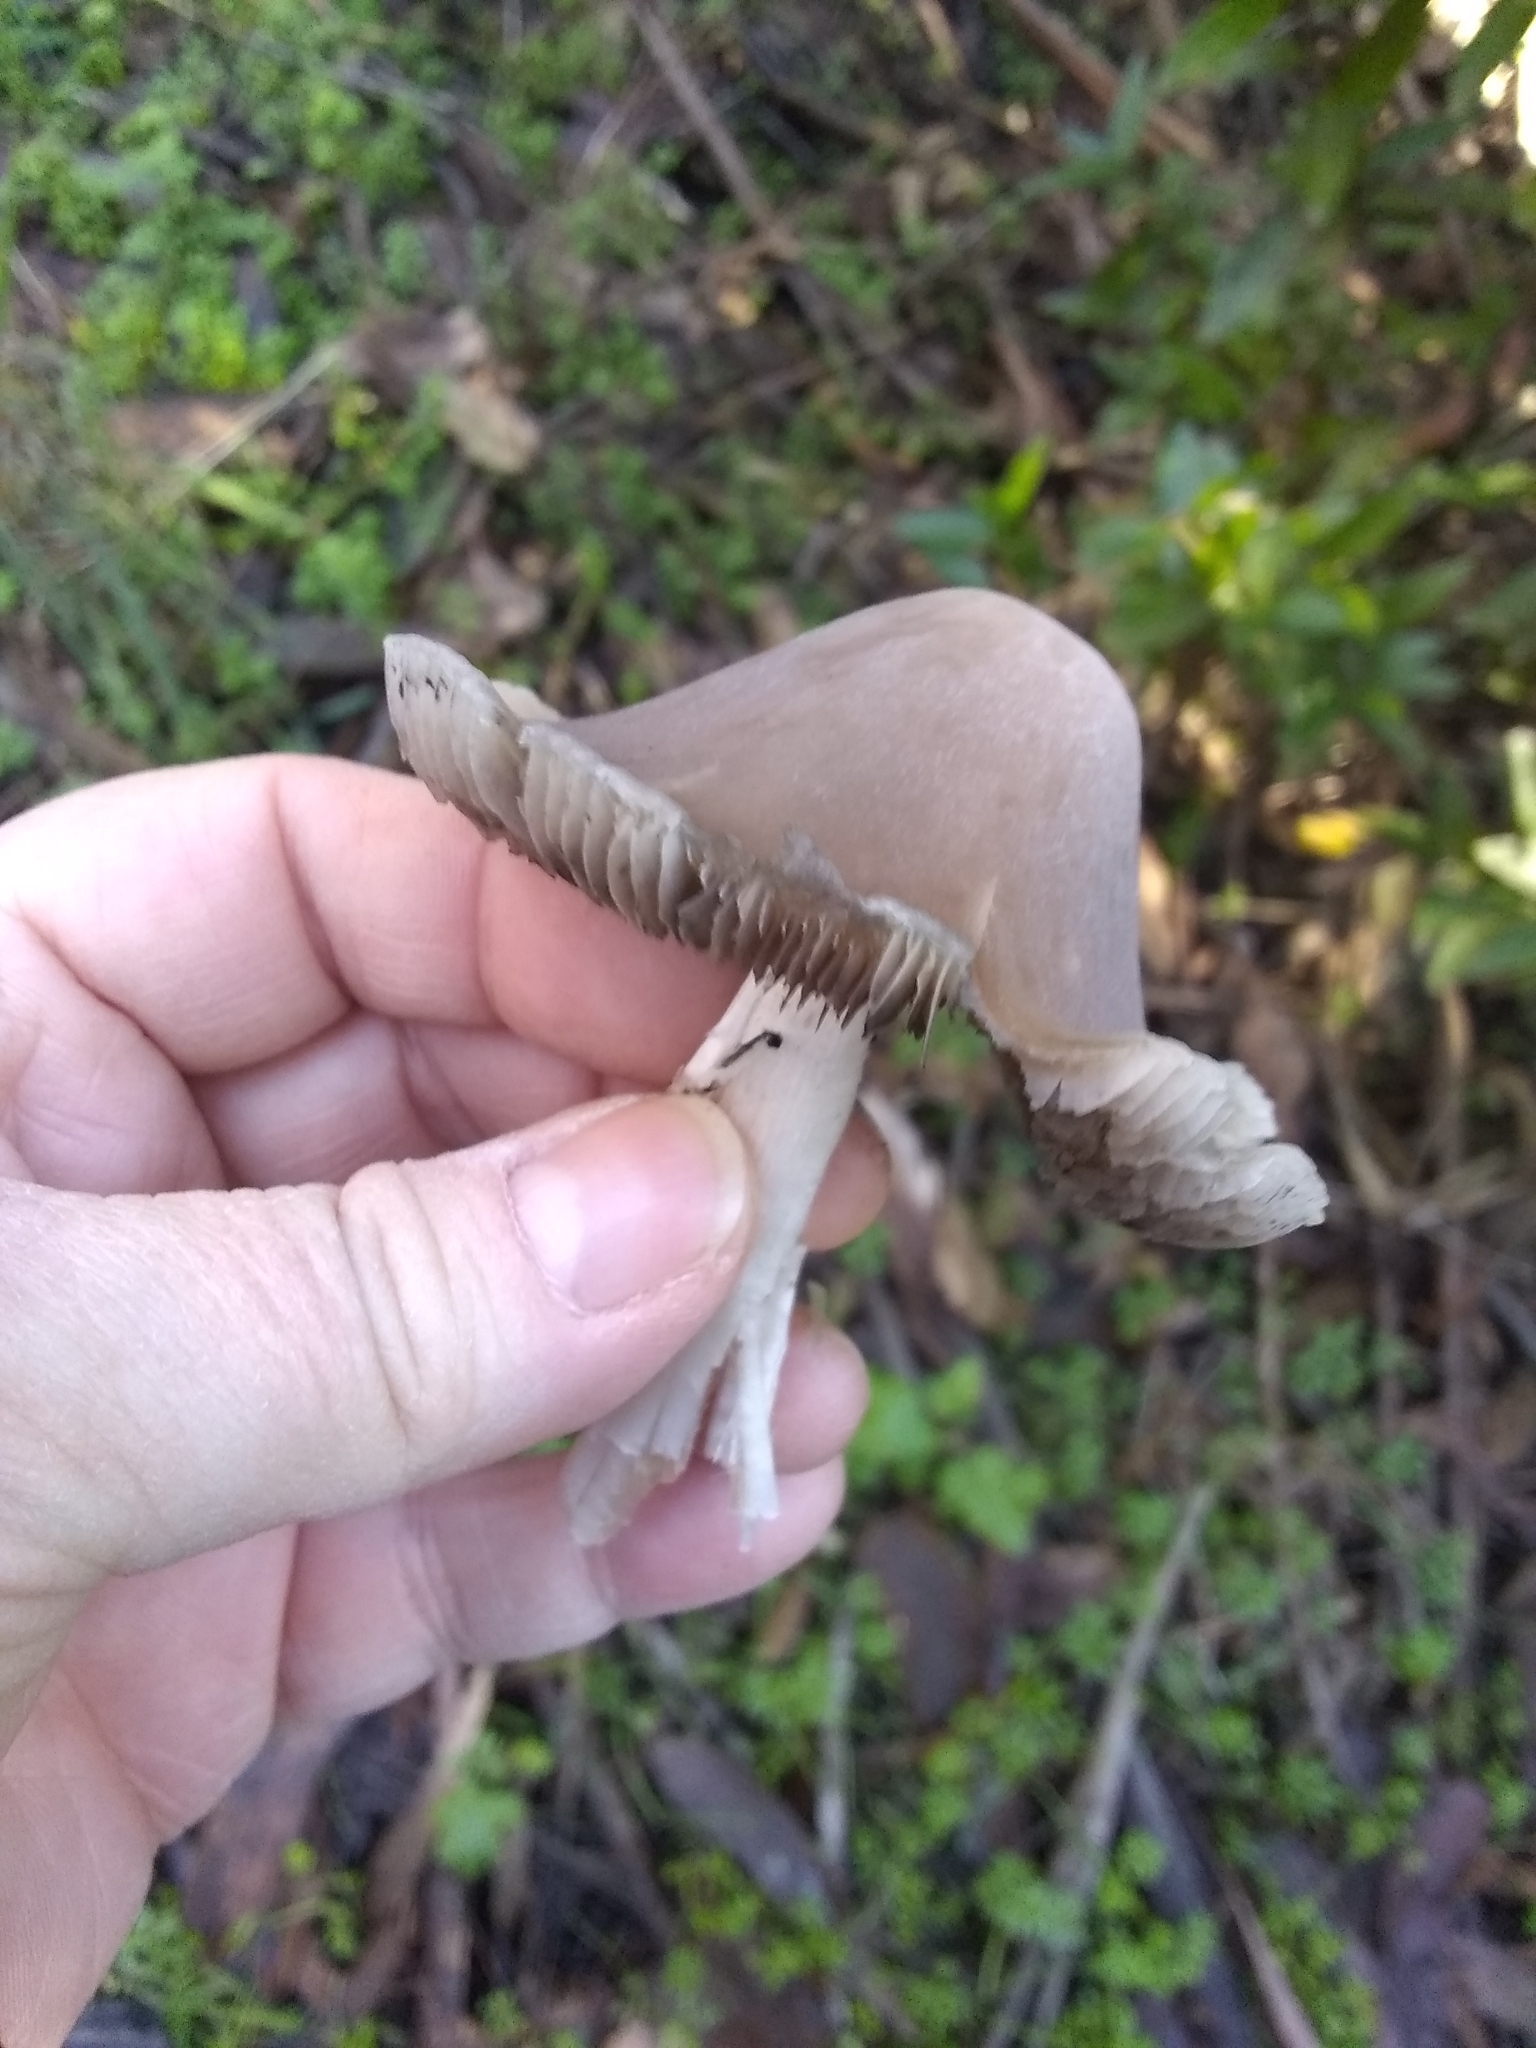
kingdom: Fungi
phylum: Basidiomycota
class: Agaricomycetes
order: Agaricales
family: Psathyrellaceae
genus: Psathyrella
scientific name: Psathyrella longipes
